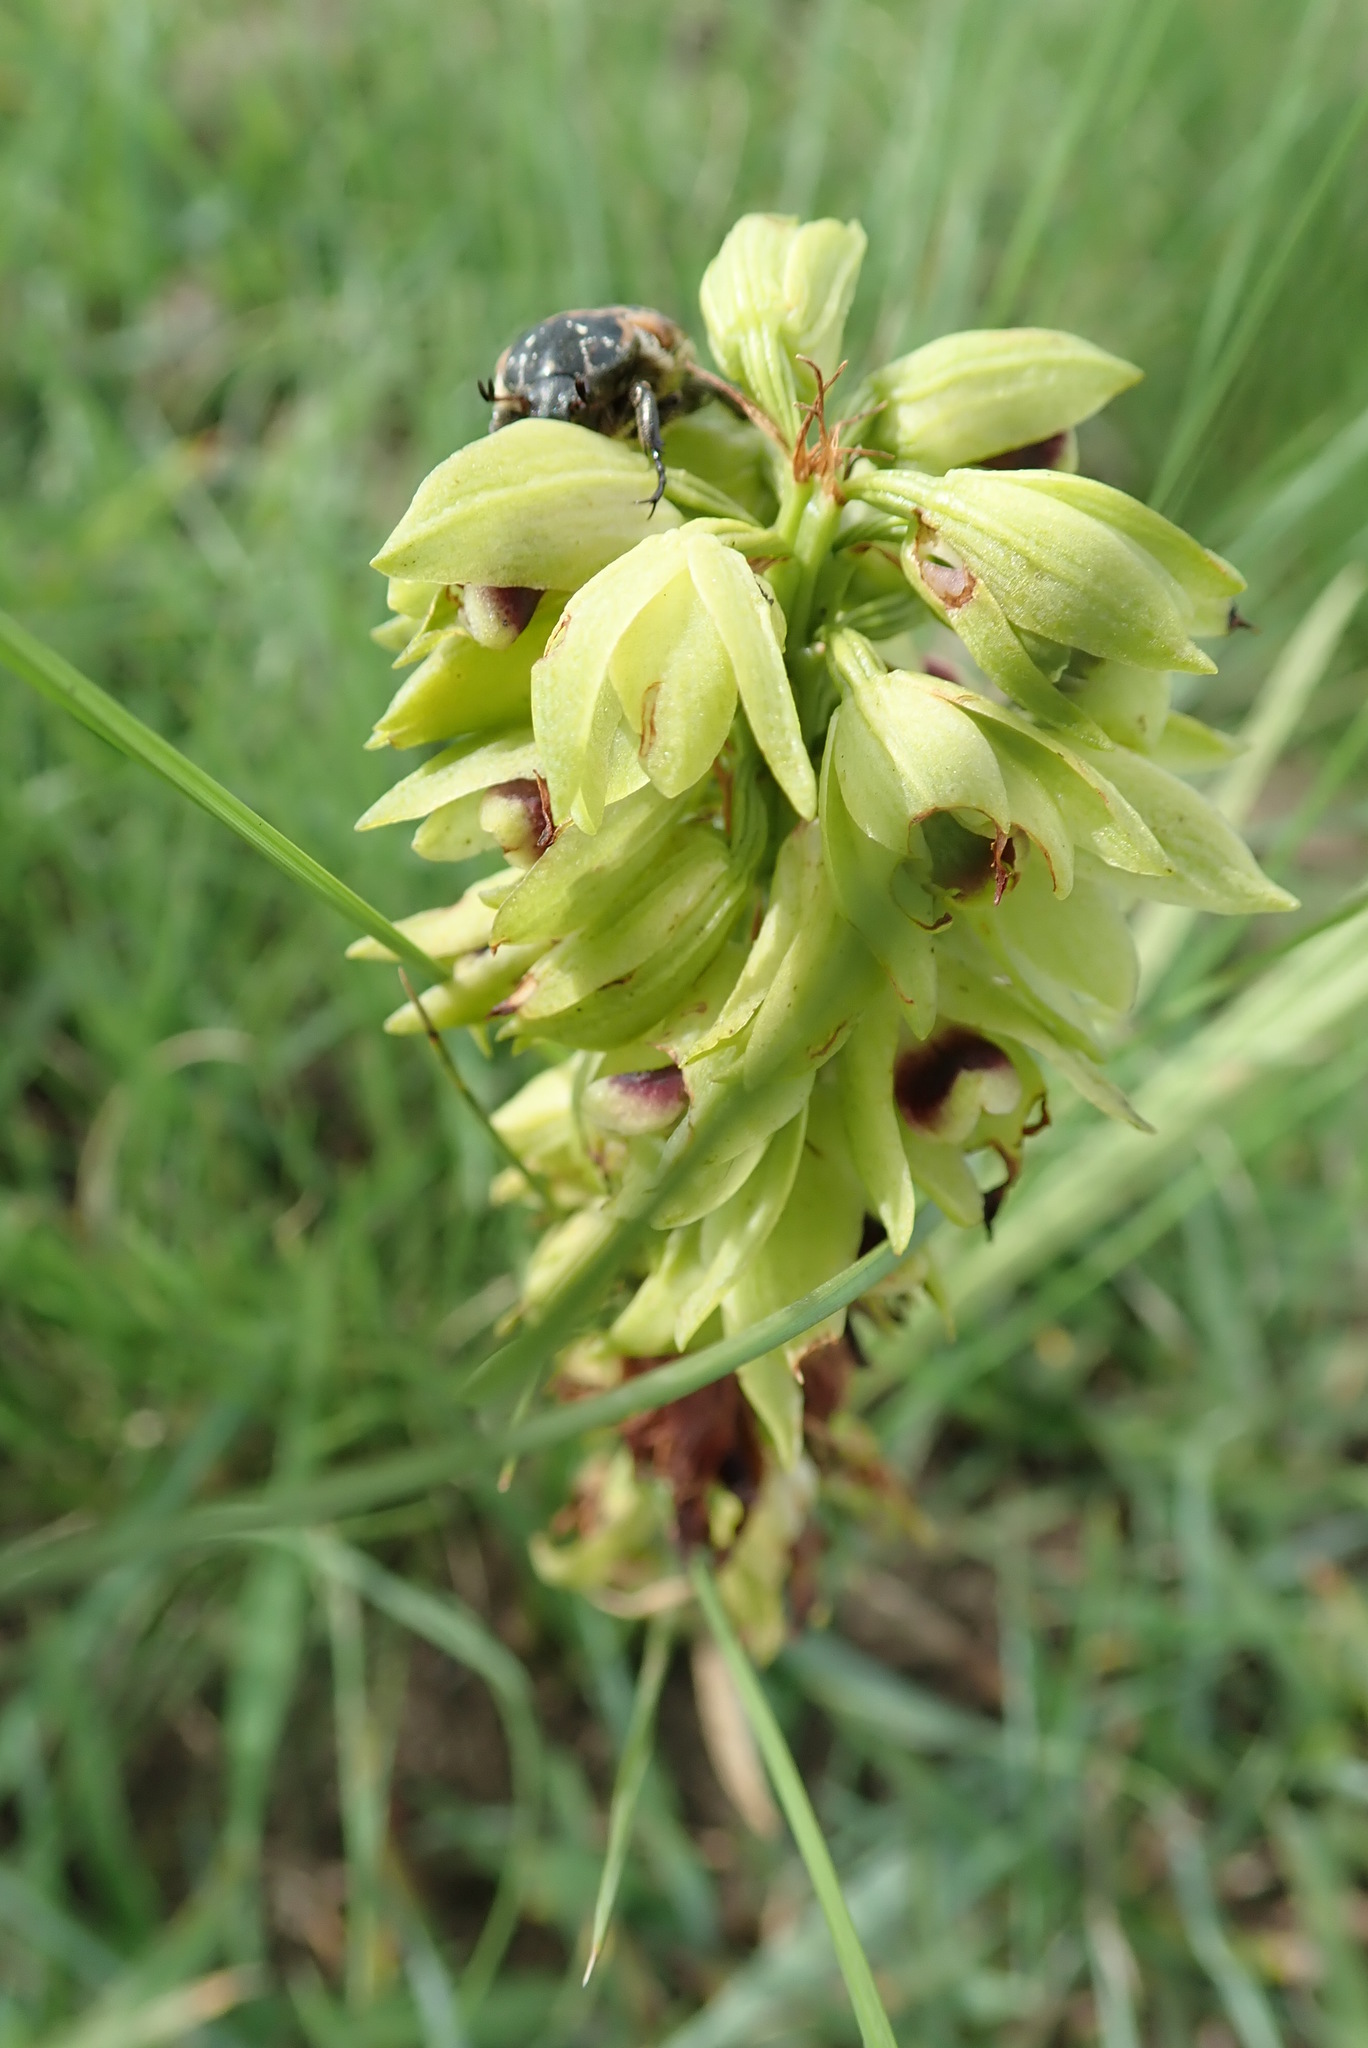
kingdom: Plantae
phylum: Tracheophyta
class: Liliopsida
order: Asparagales
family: Orchidaceae
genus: Eulophia
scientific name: Eulophia foliosa
